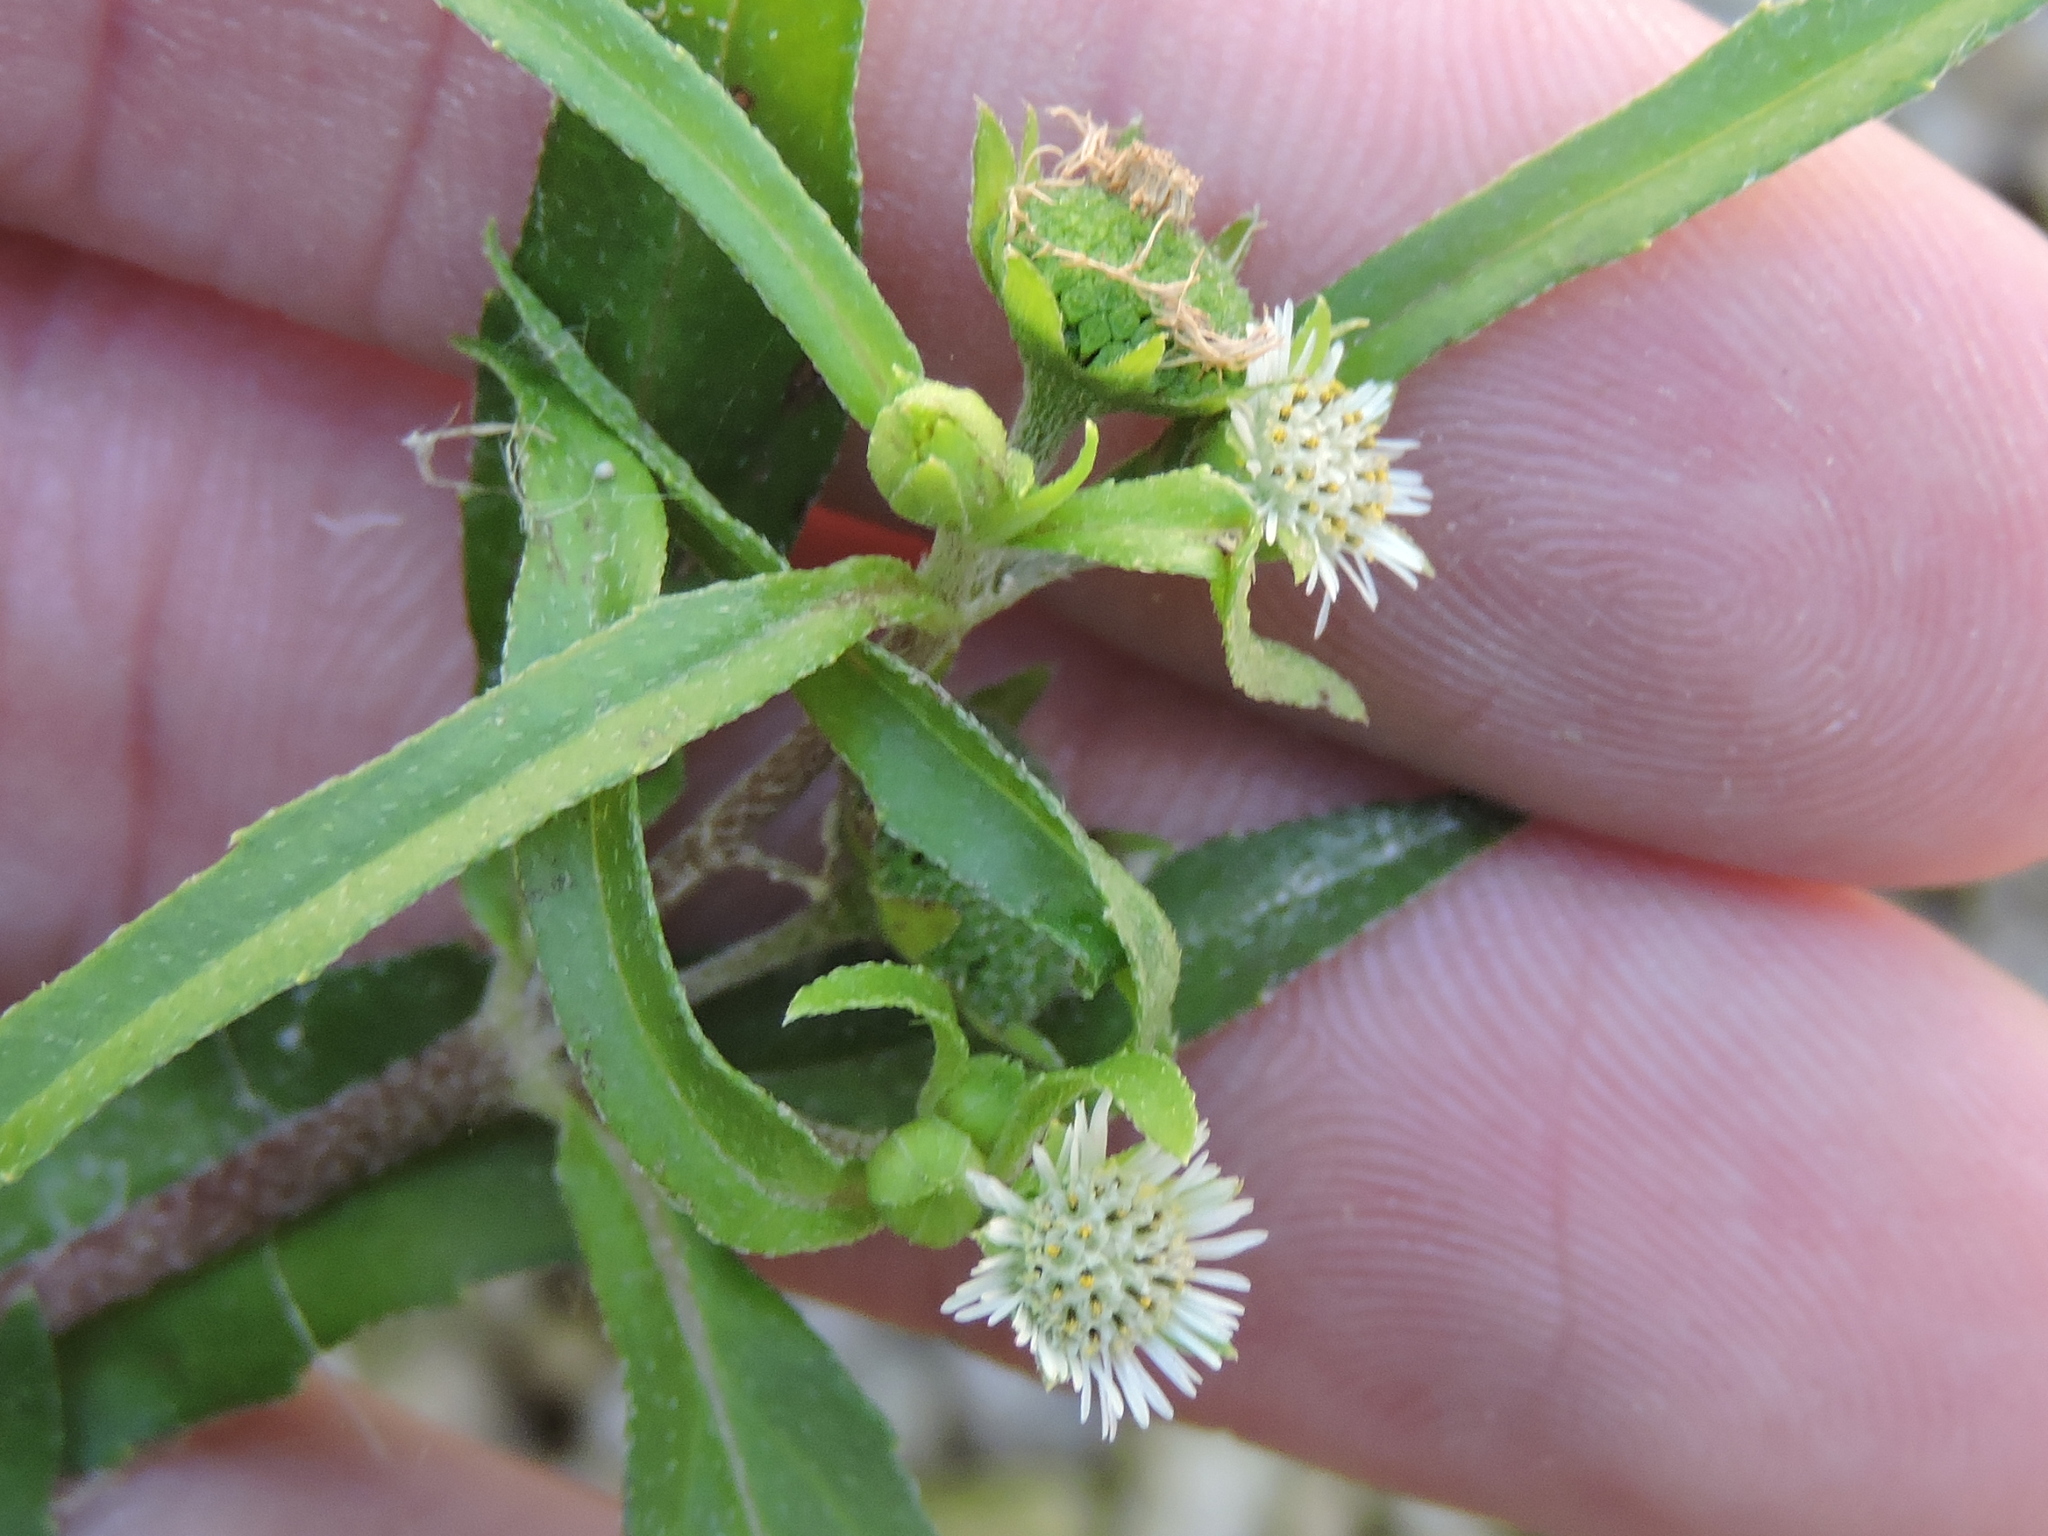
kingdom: Plantae
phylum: Tracheophyta
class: Magnoliopsida
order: Asterales
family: Asteraceae
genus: Eclipta
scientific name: Eclipta prostrata
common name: False daisy
